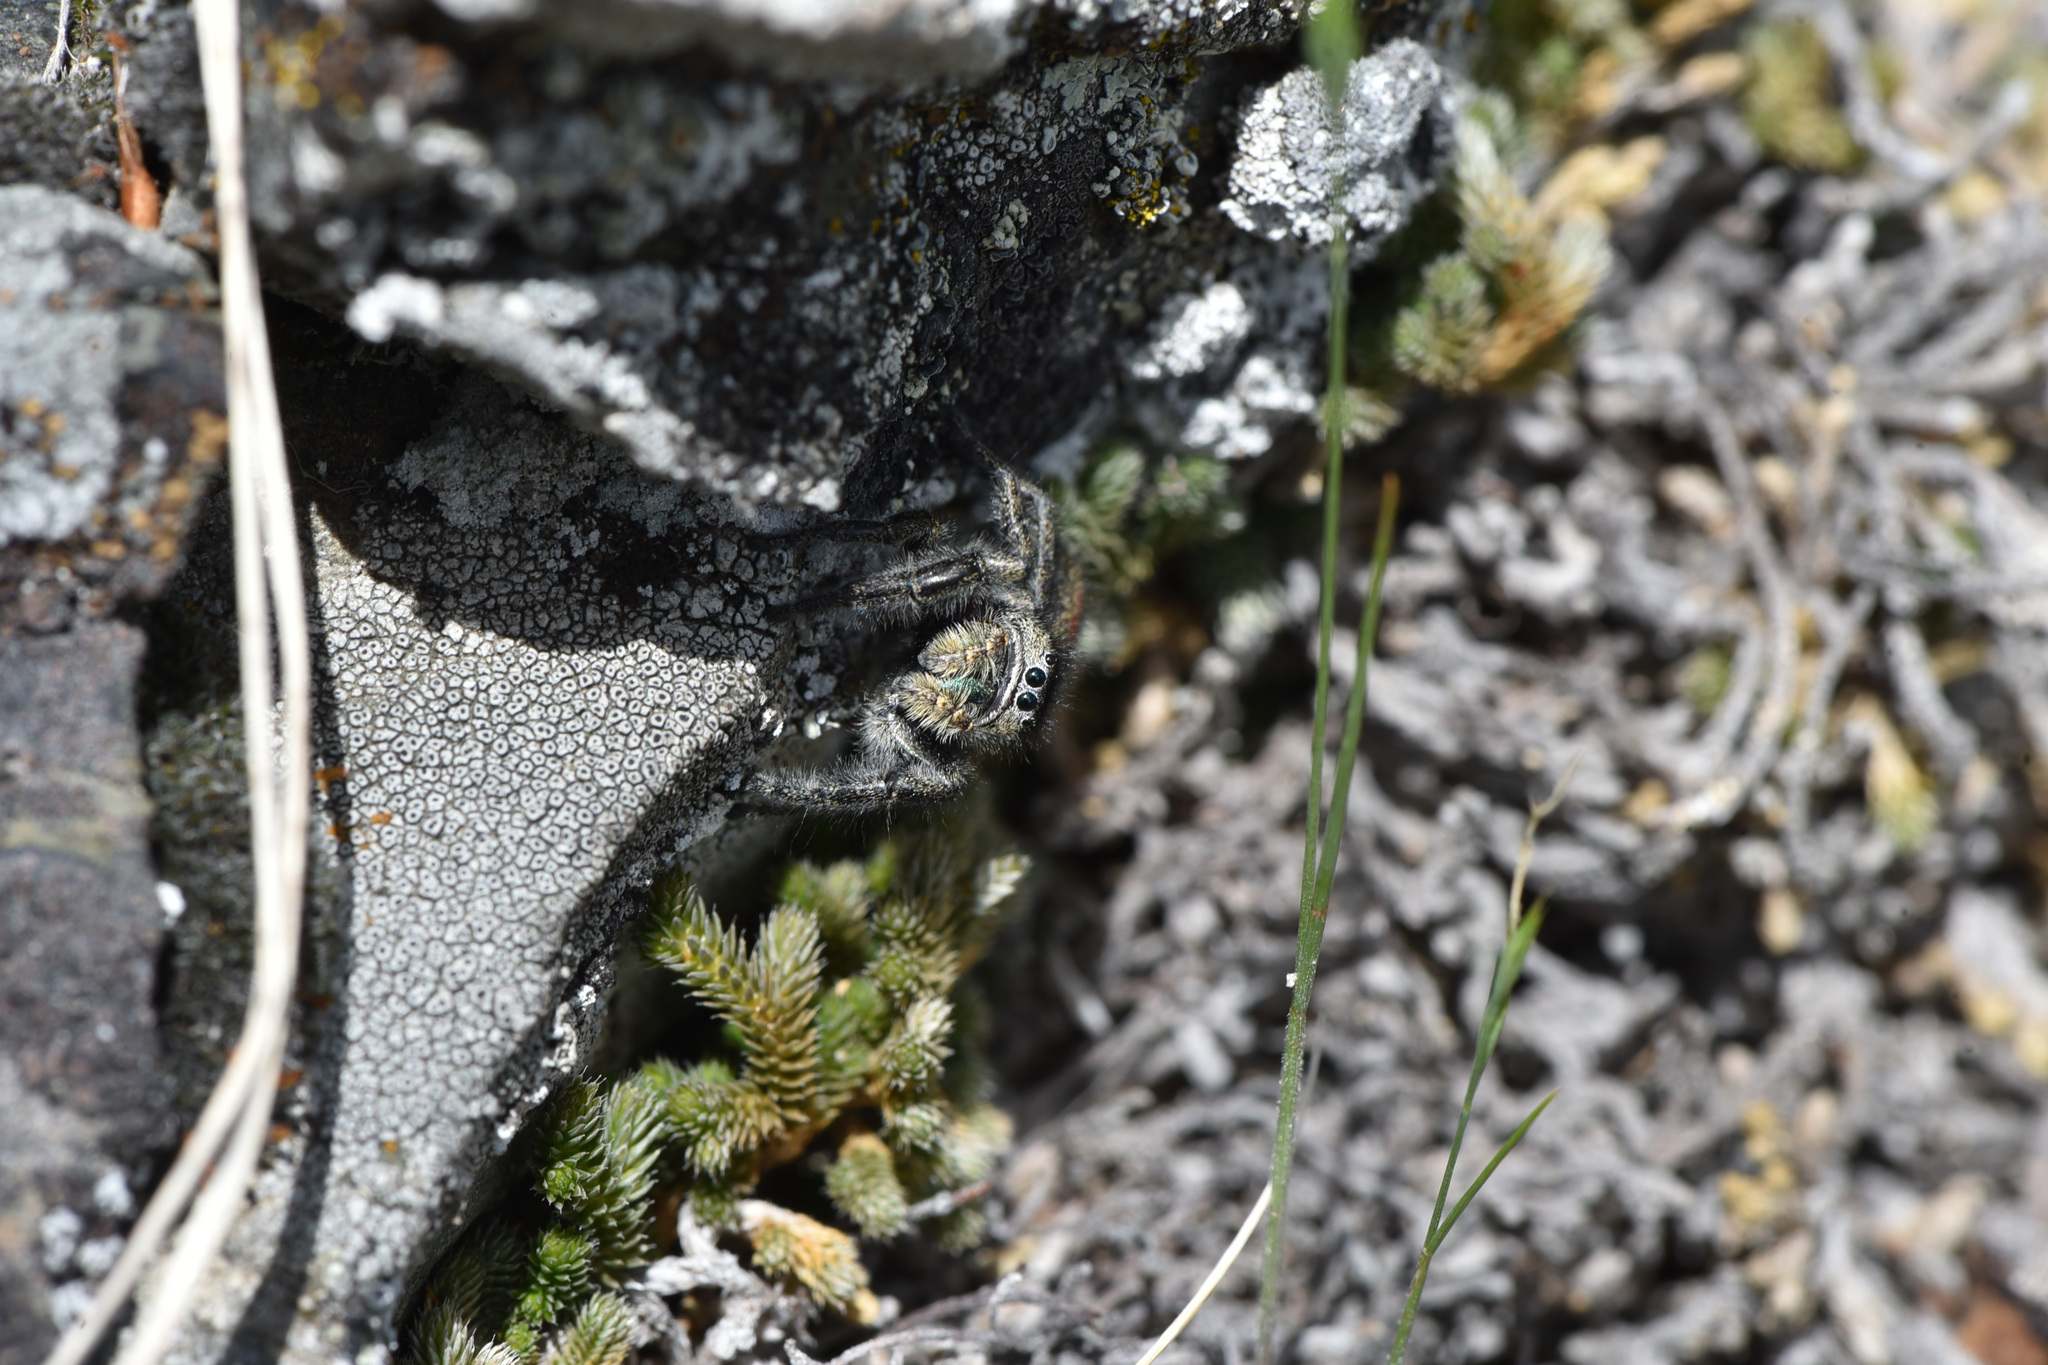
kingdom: Animalia
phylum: Arthropoda
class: Arachnida
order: Araneae
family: Salticidae
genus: Phidippus
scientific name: Phidippus johnsoni
